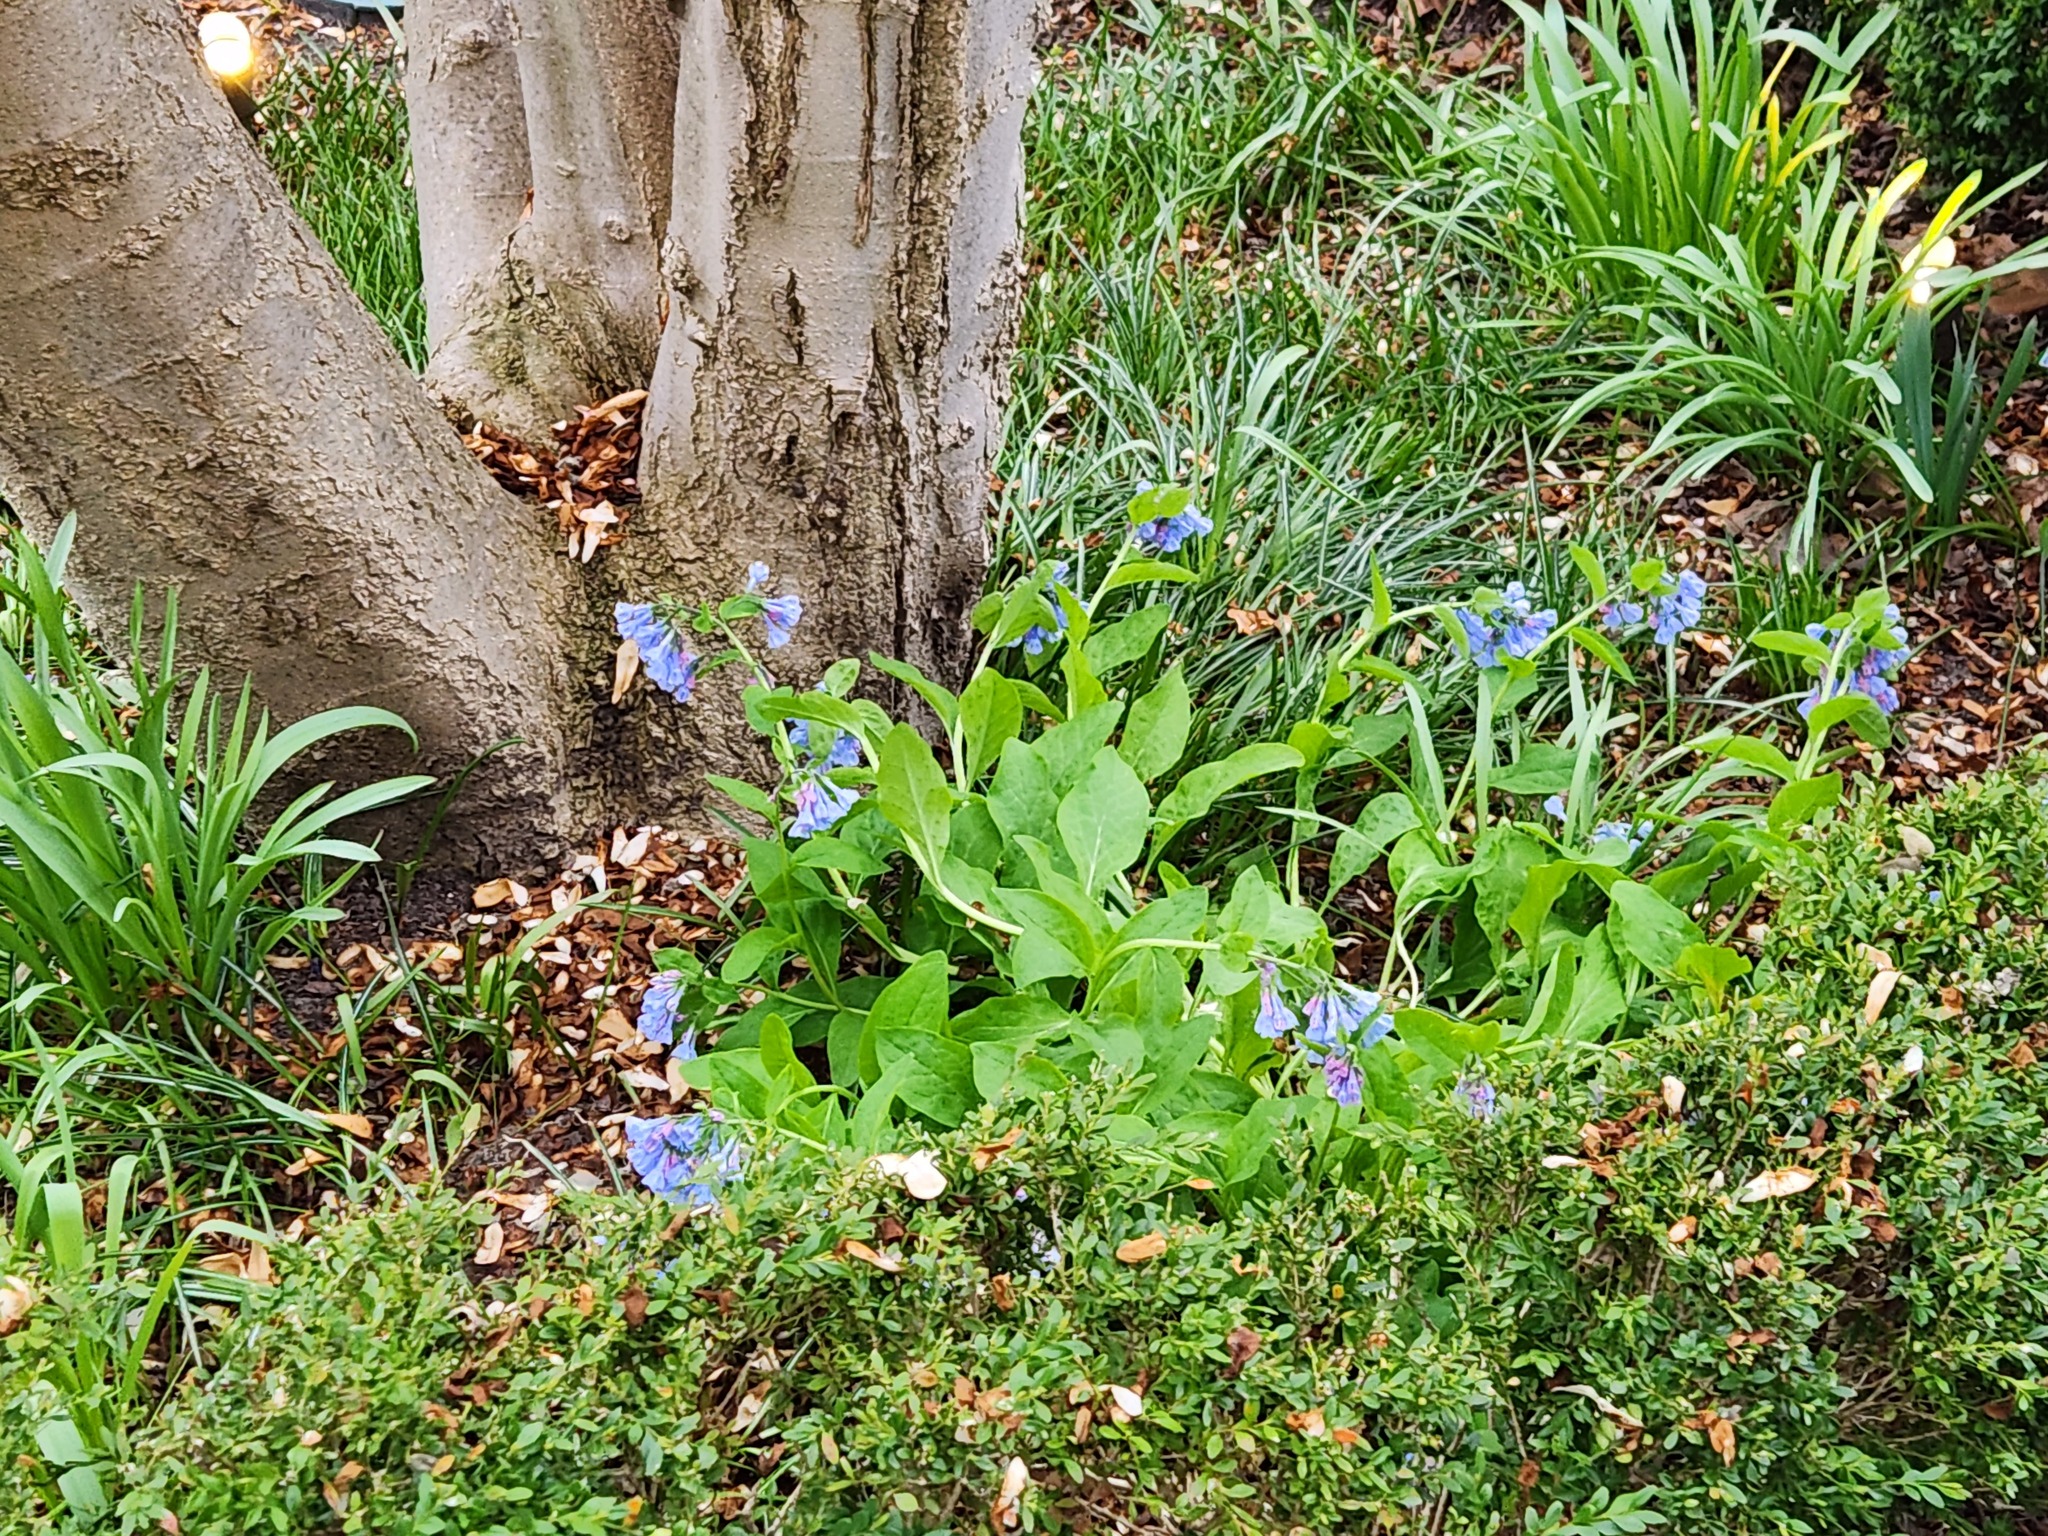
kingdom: Plantae
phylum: Tracheophyta
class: Magnoliopsida
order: Boraginales
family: Boraginaceae
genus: Mertensia
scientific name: Mertensia virginica
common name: Virginia bluebells
